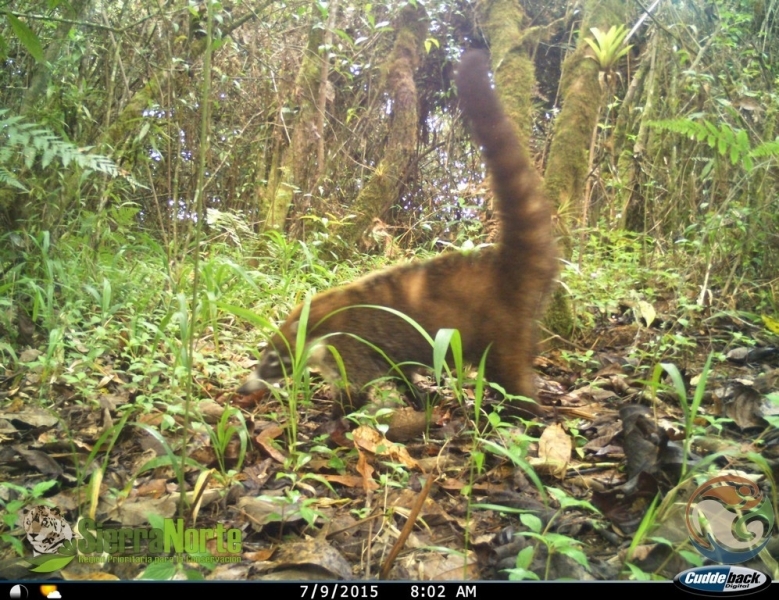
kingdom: Animalia
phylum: Chordata
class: Mammalia
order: Carnivora
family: Procyonidae
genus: Nasua
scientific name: Nasua narica
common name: White-nosed coati
